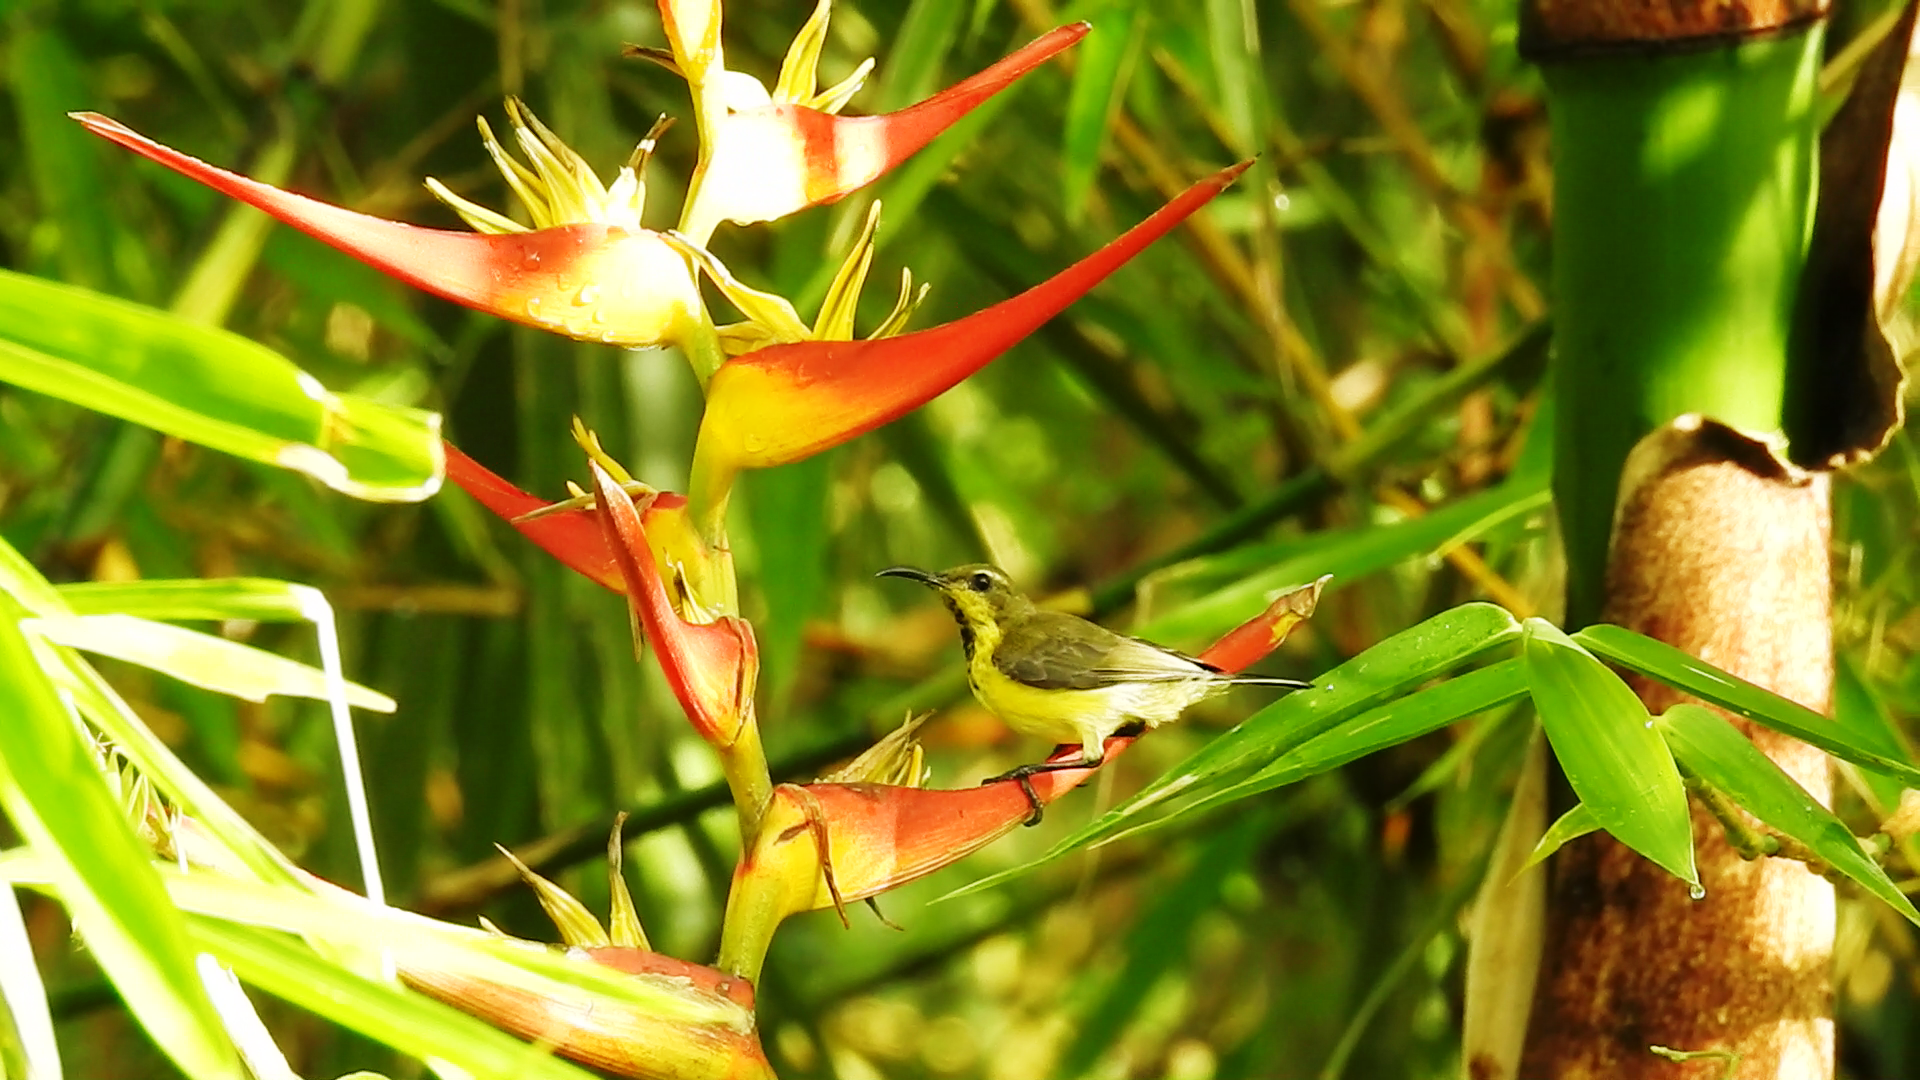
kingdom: Animalia
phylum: Chordata
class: Aves
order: Passeriformes
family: Nectariniidae
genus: Cinnyris
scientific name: Cinnyris jugularis
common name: Olive-backed sunbird
